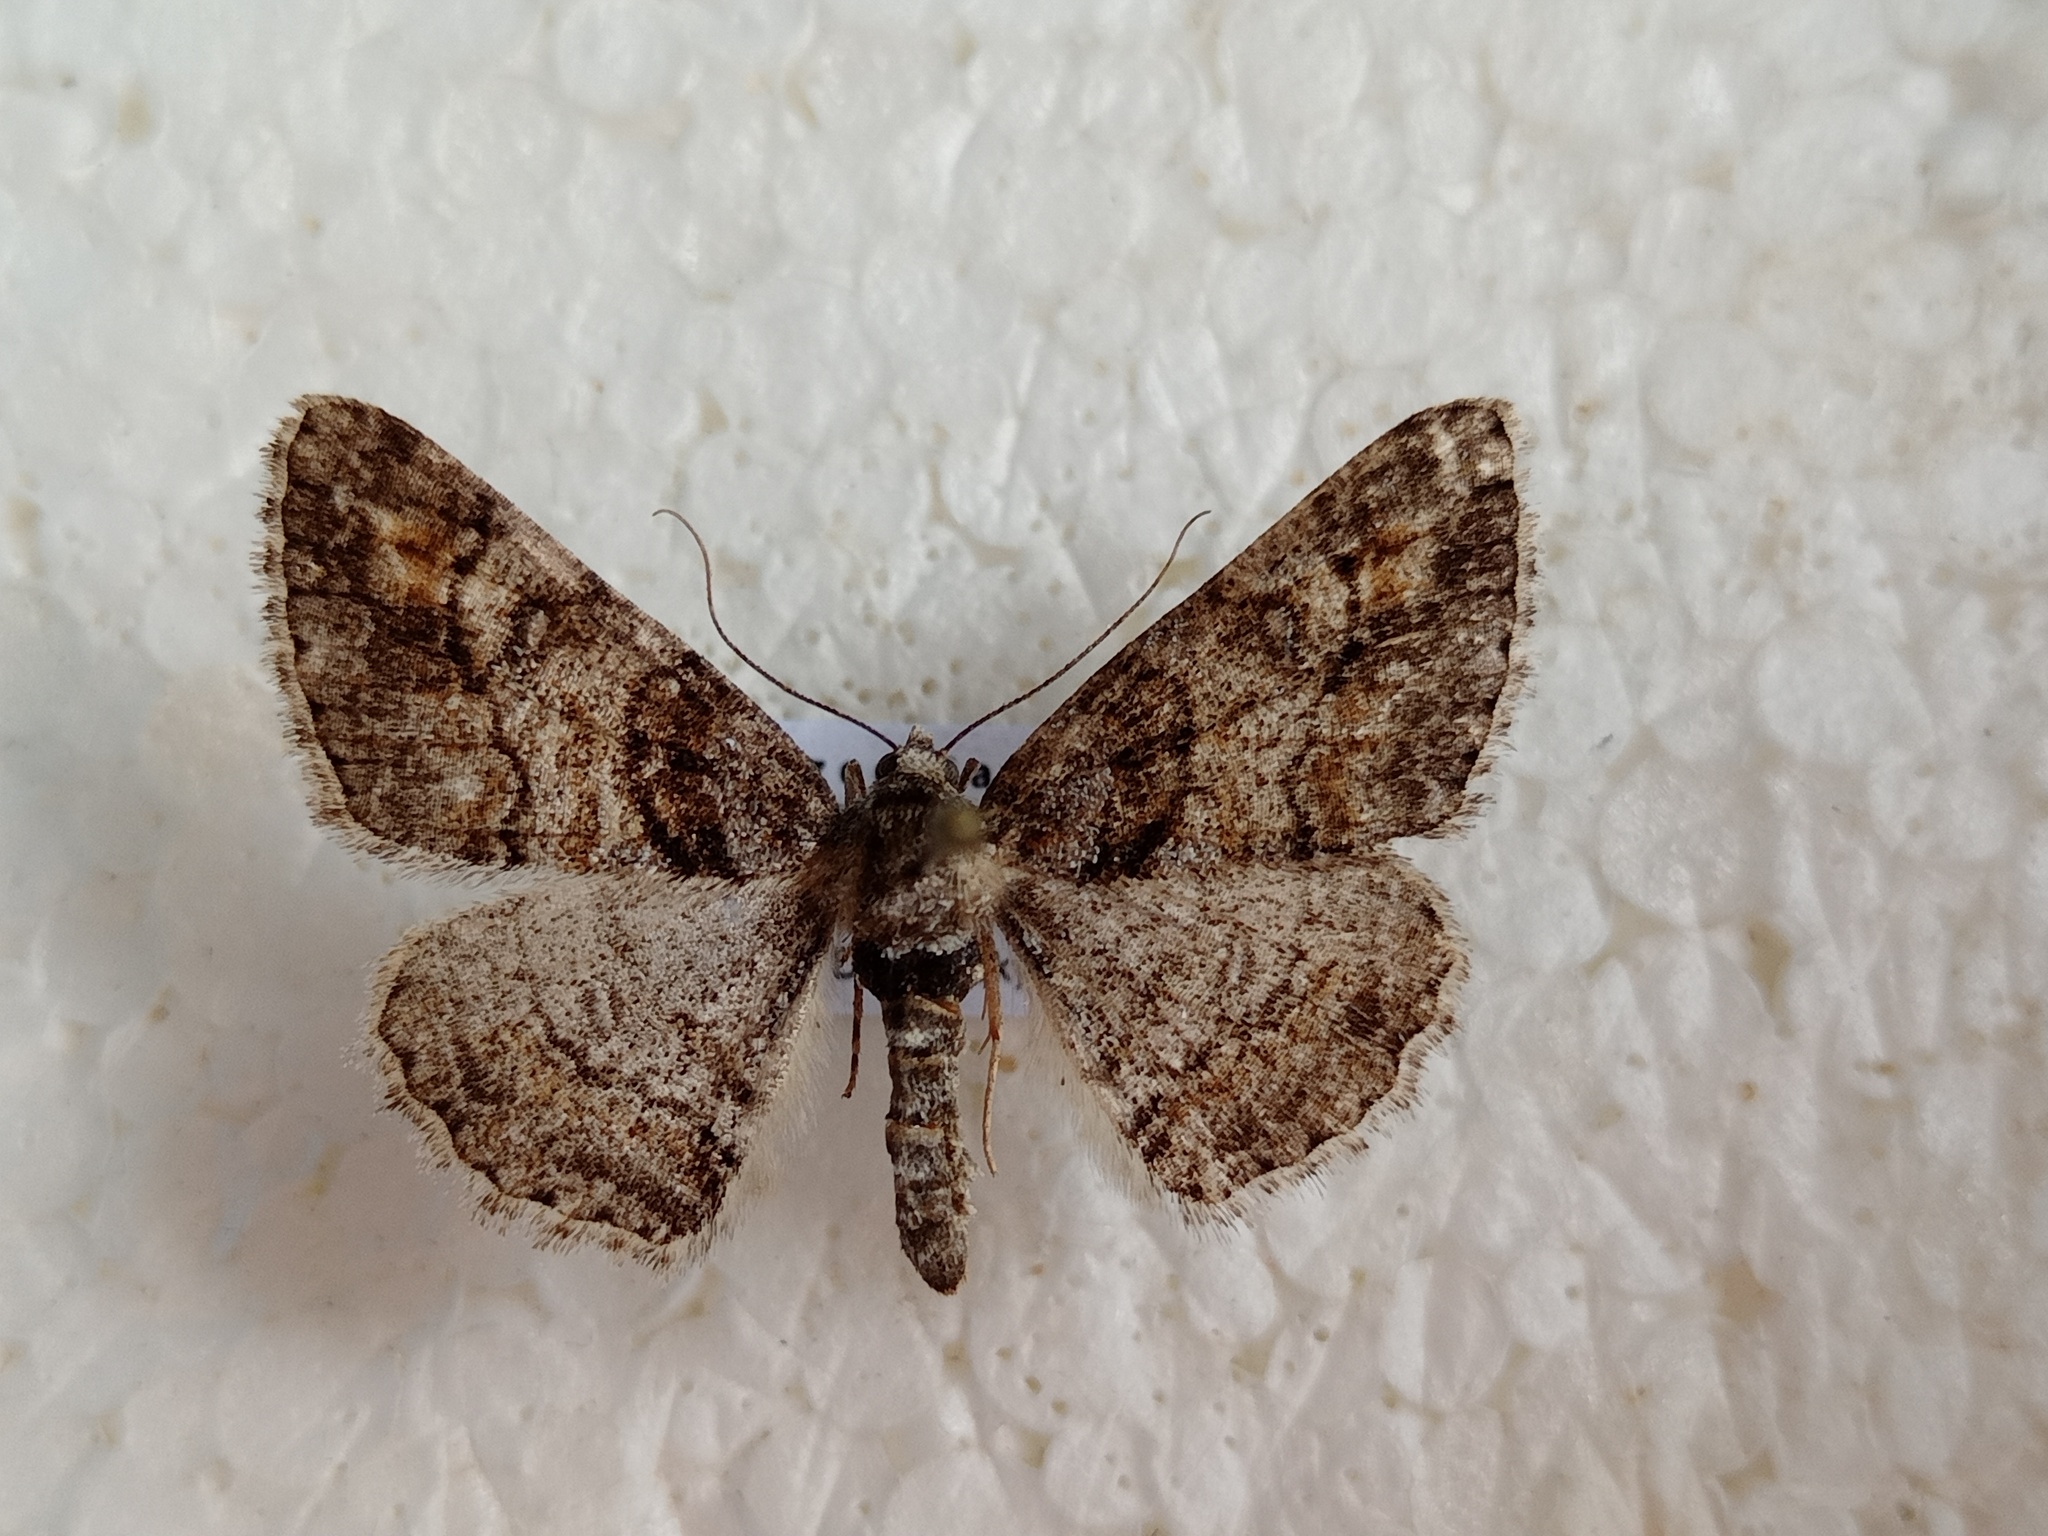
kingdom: Animalia
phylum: Arthropoda
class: Insecta
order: Lepidoptera
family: Geometridae
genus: Cleora
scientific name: Cleora cinctaria
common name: Ringed carpet
